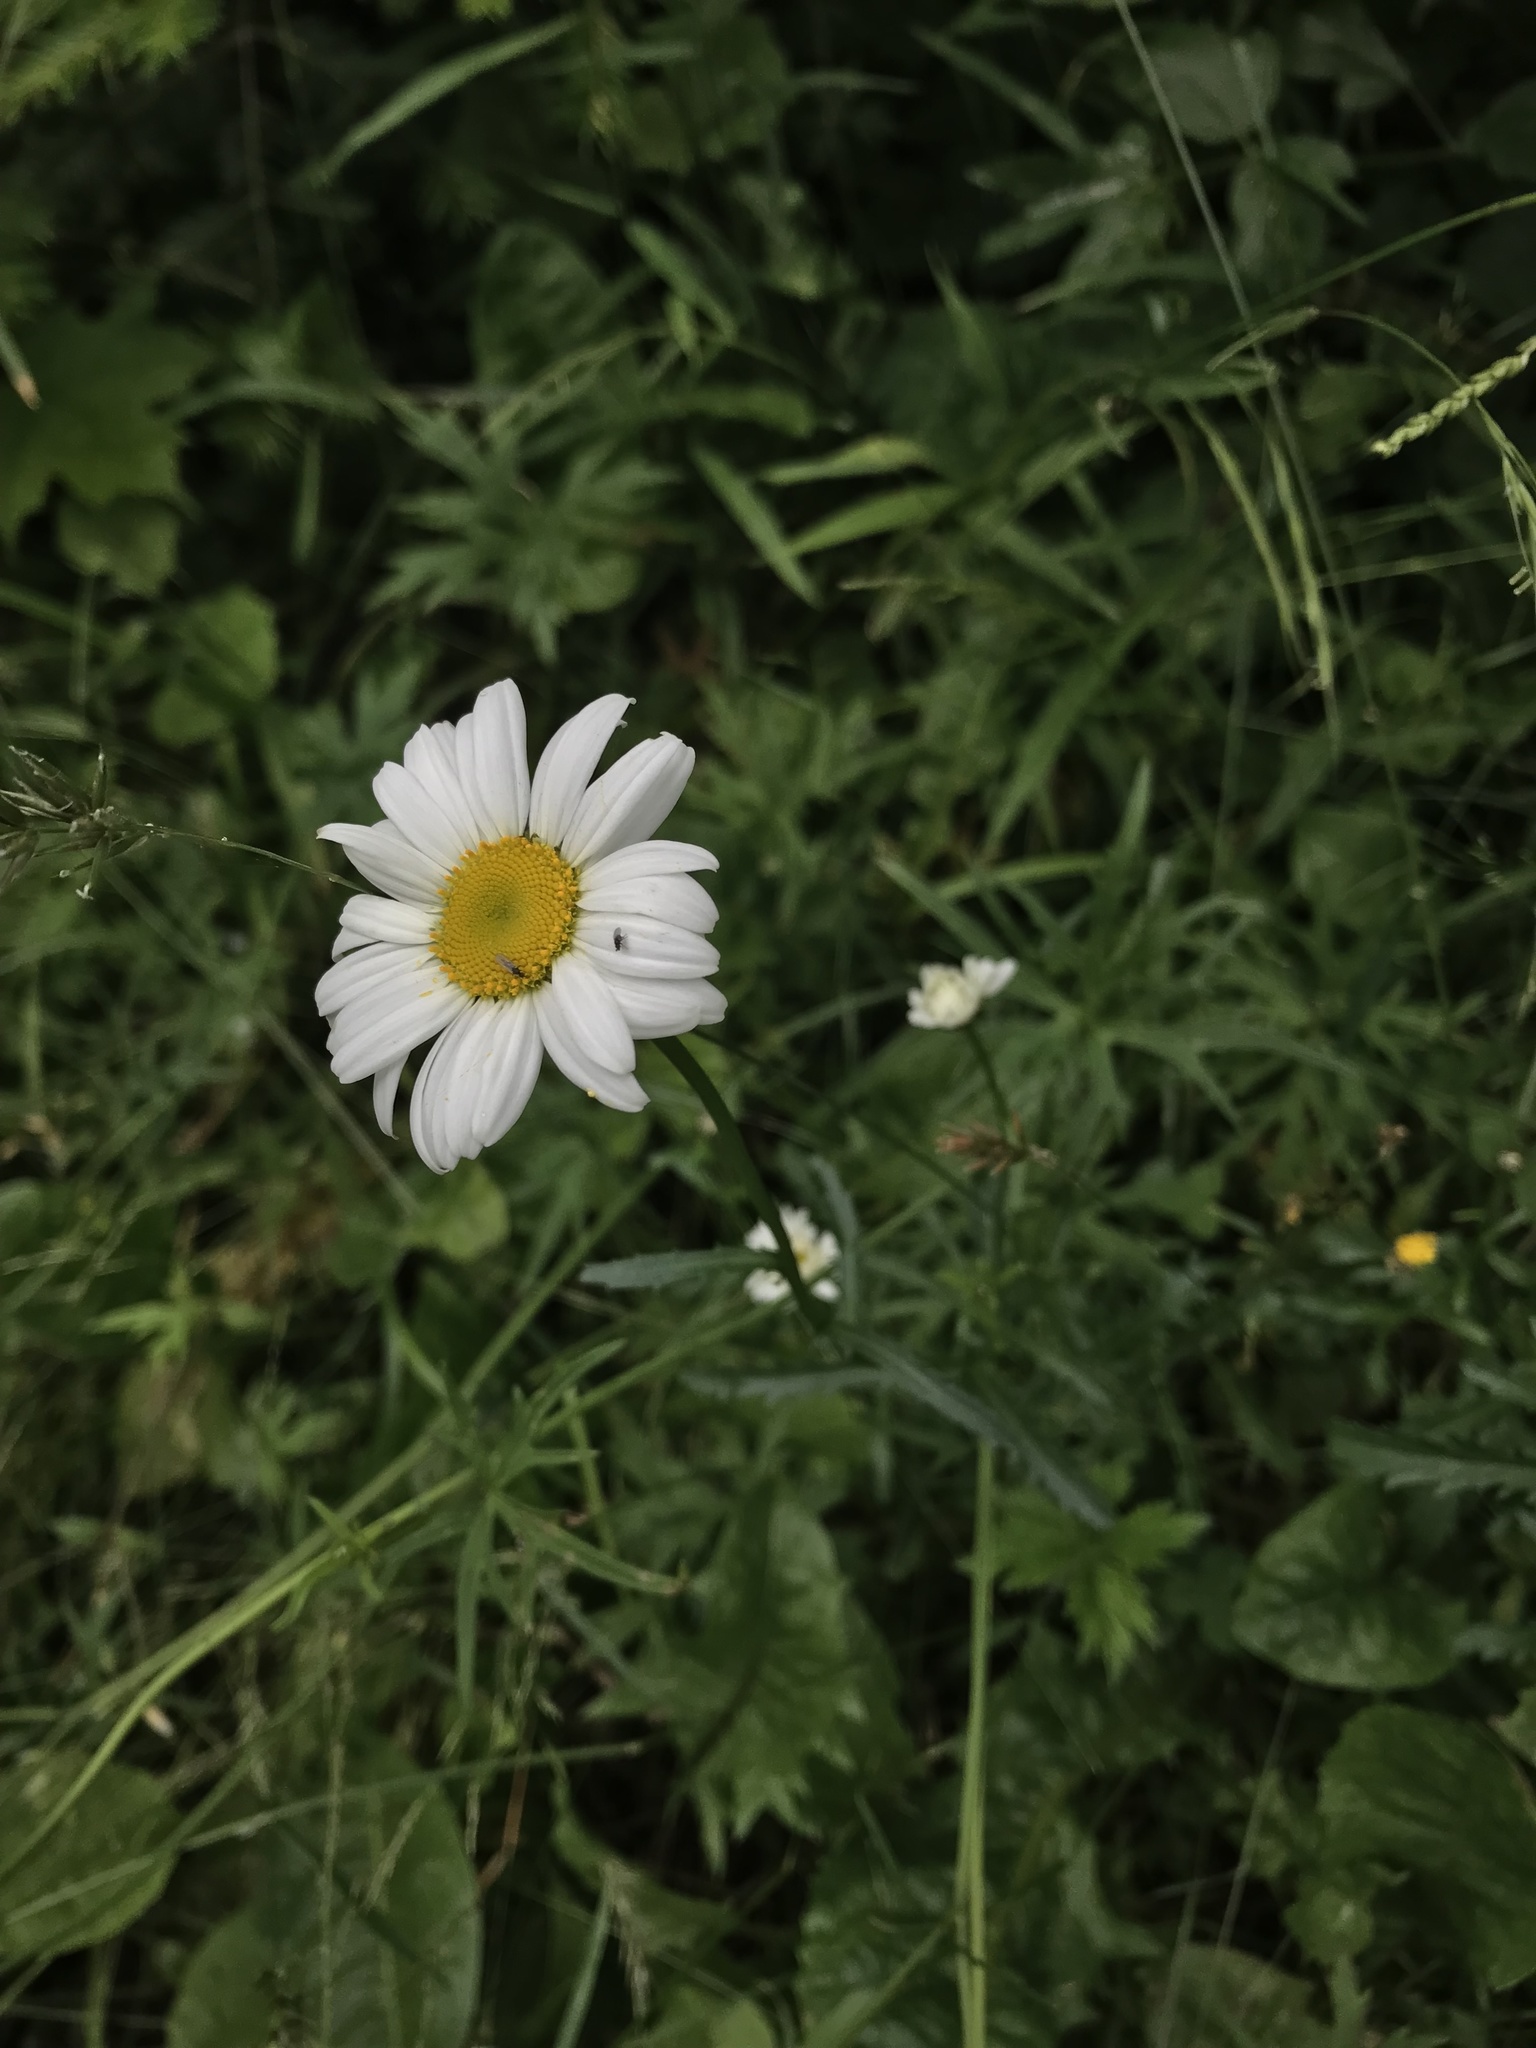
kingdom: Plantae
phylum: Tracheophyta
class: Magnoliopsida
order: Asterales
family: Asteraceae
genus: Leucanthemum
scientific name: Leucanthemum vulgare
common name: Oxeye daisy
